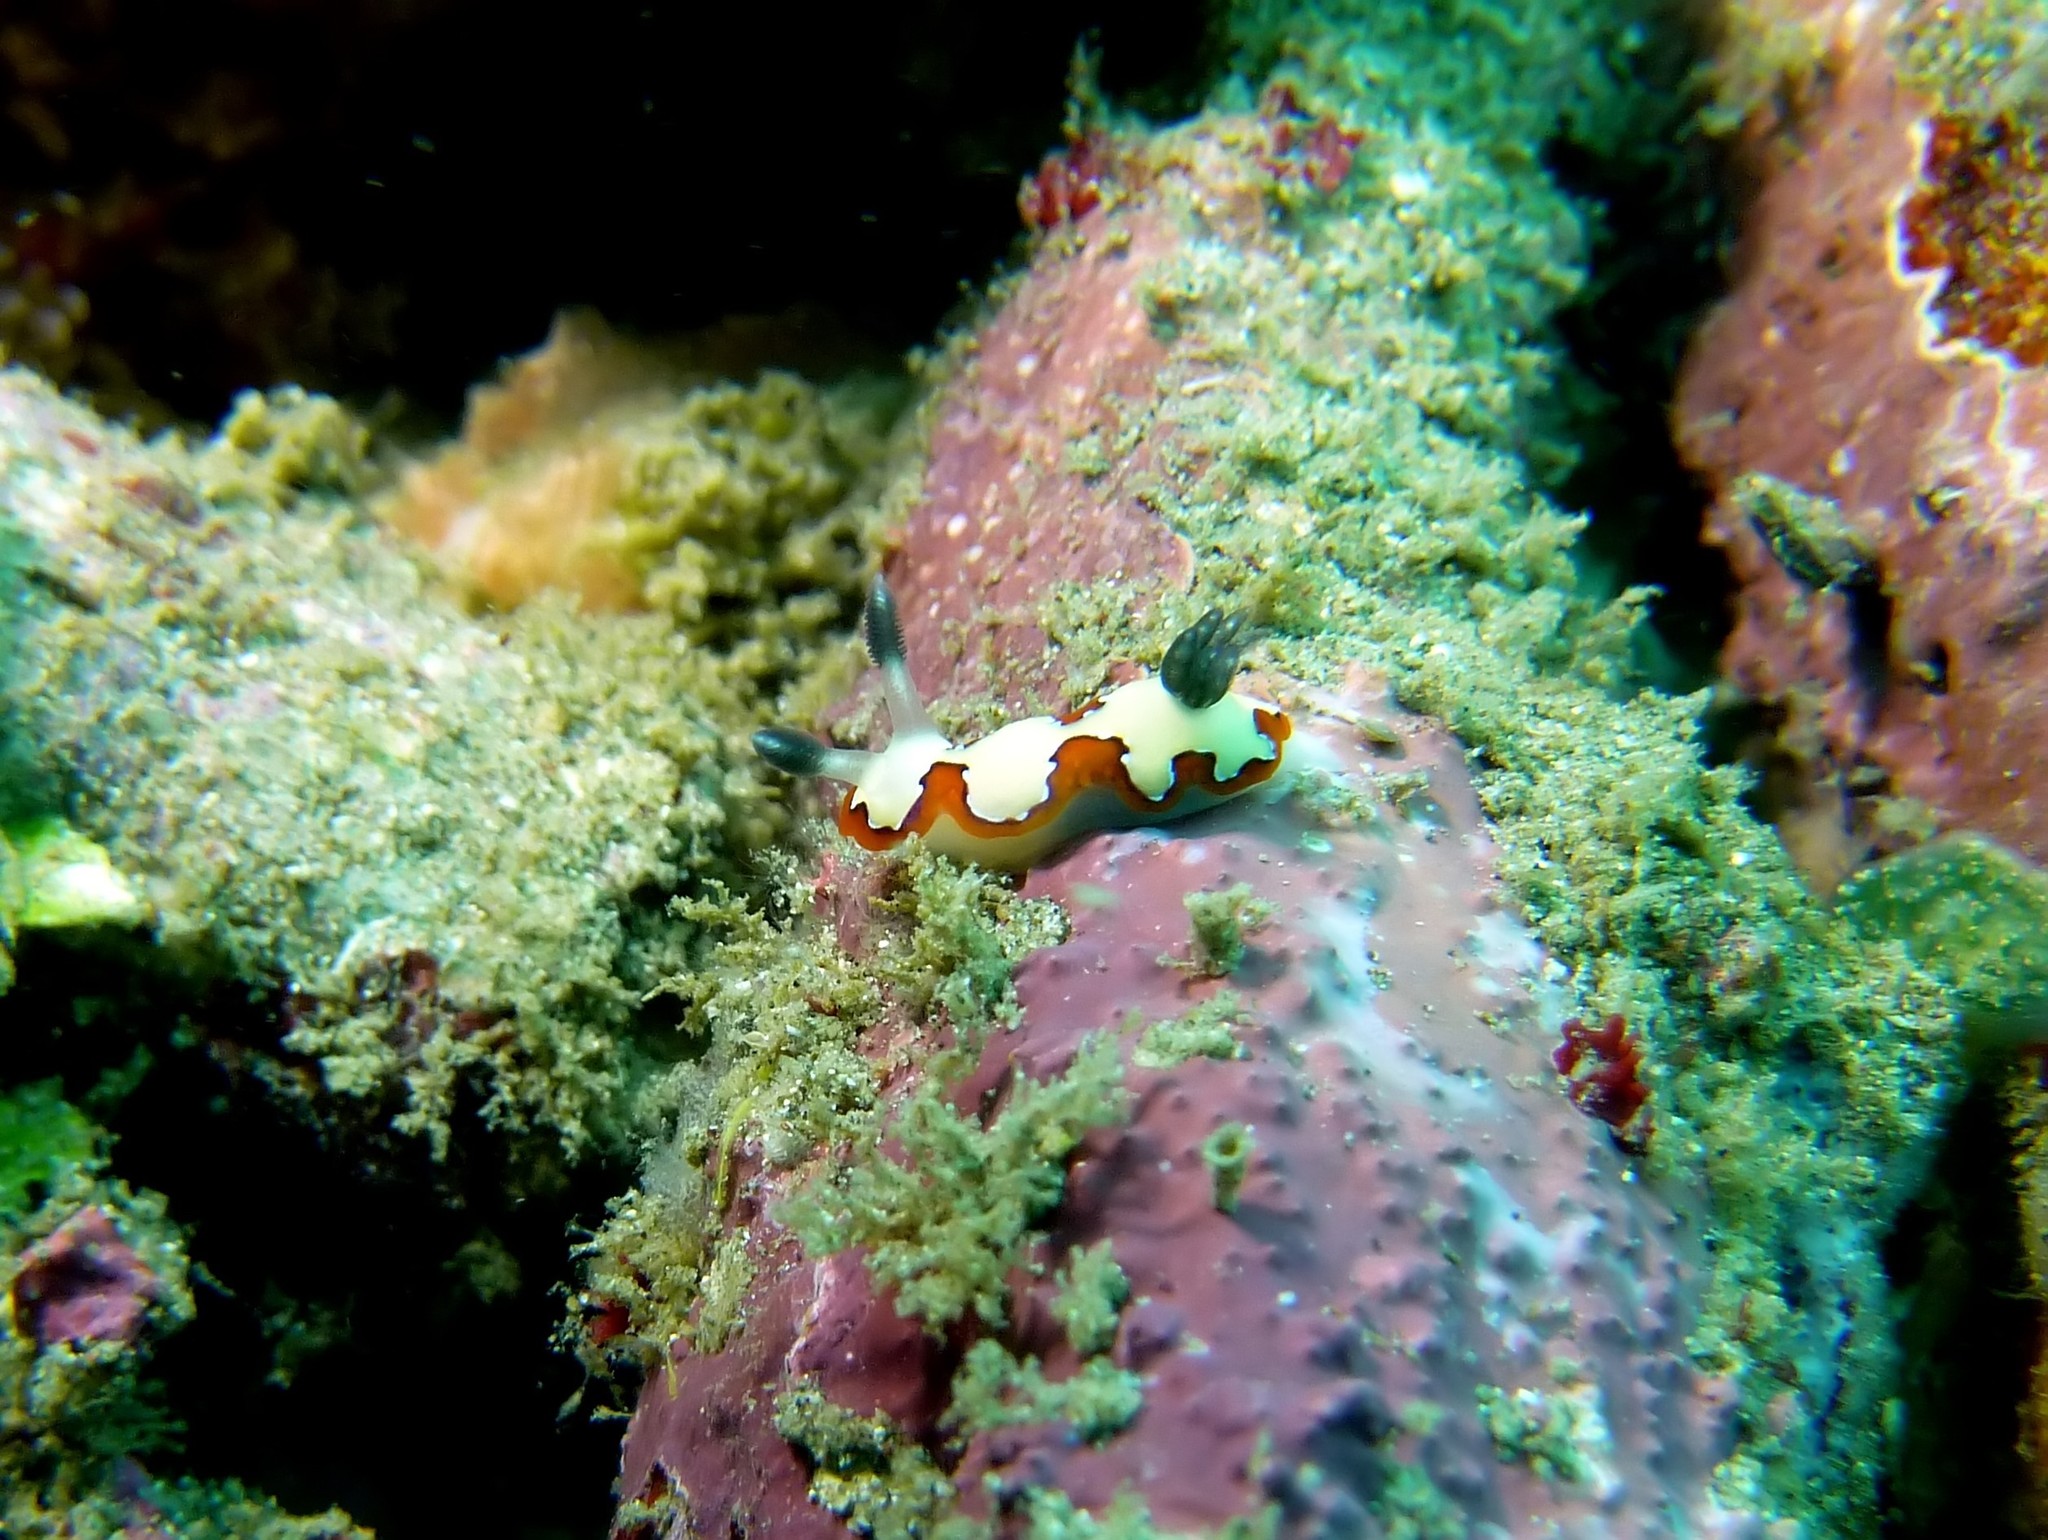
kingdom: Animalia
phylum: Mollusca
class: Gastropoda
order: Nudibranchia
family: Chromodorididae
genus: Goniobranchus
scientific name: Goniobranchus fidelis
